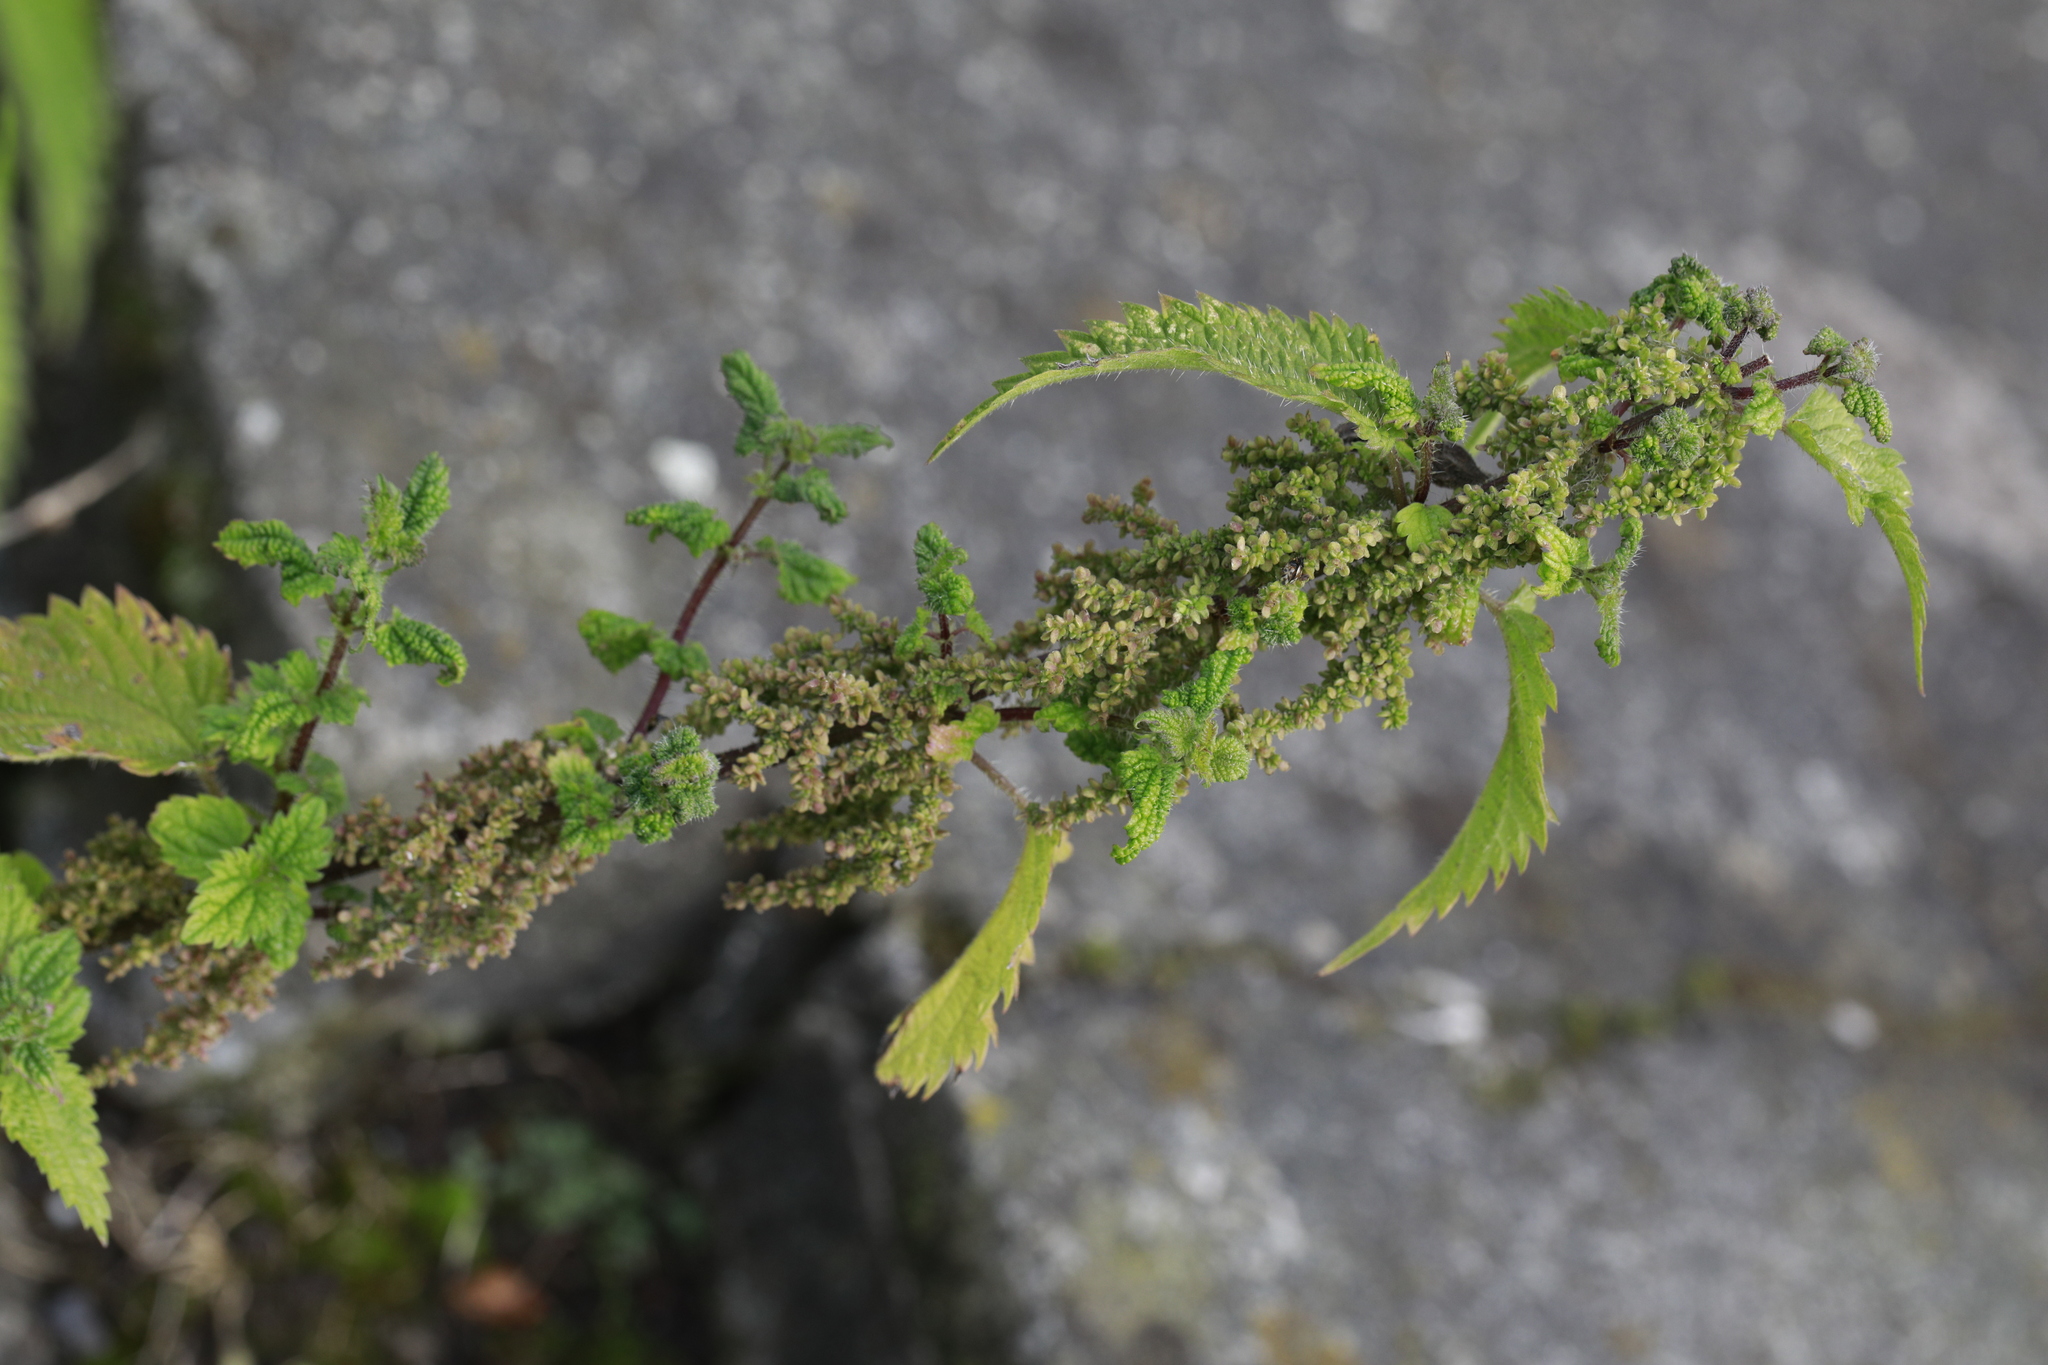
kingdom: Plantae
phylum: Tracheophyta
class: Magnoliopsida
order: Rosales
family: Urticaceae
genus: Urtica
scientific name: Urtica dioica
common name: Common nettle
